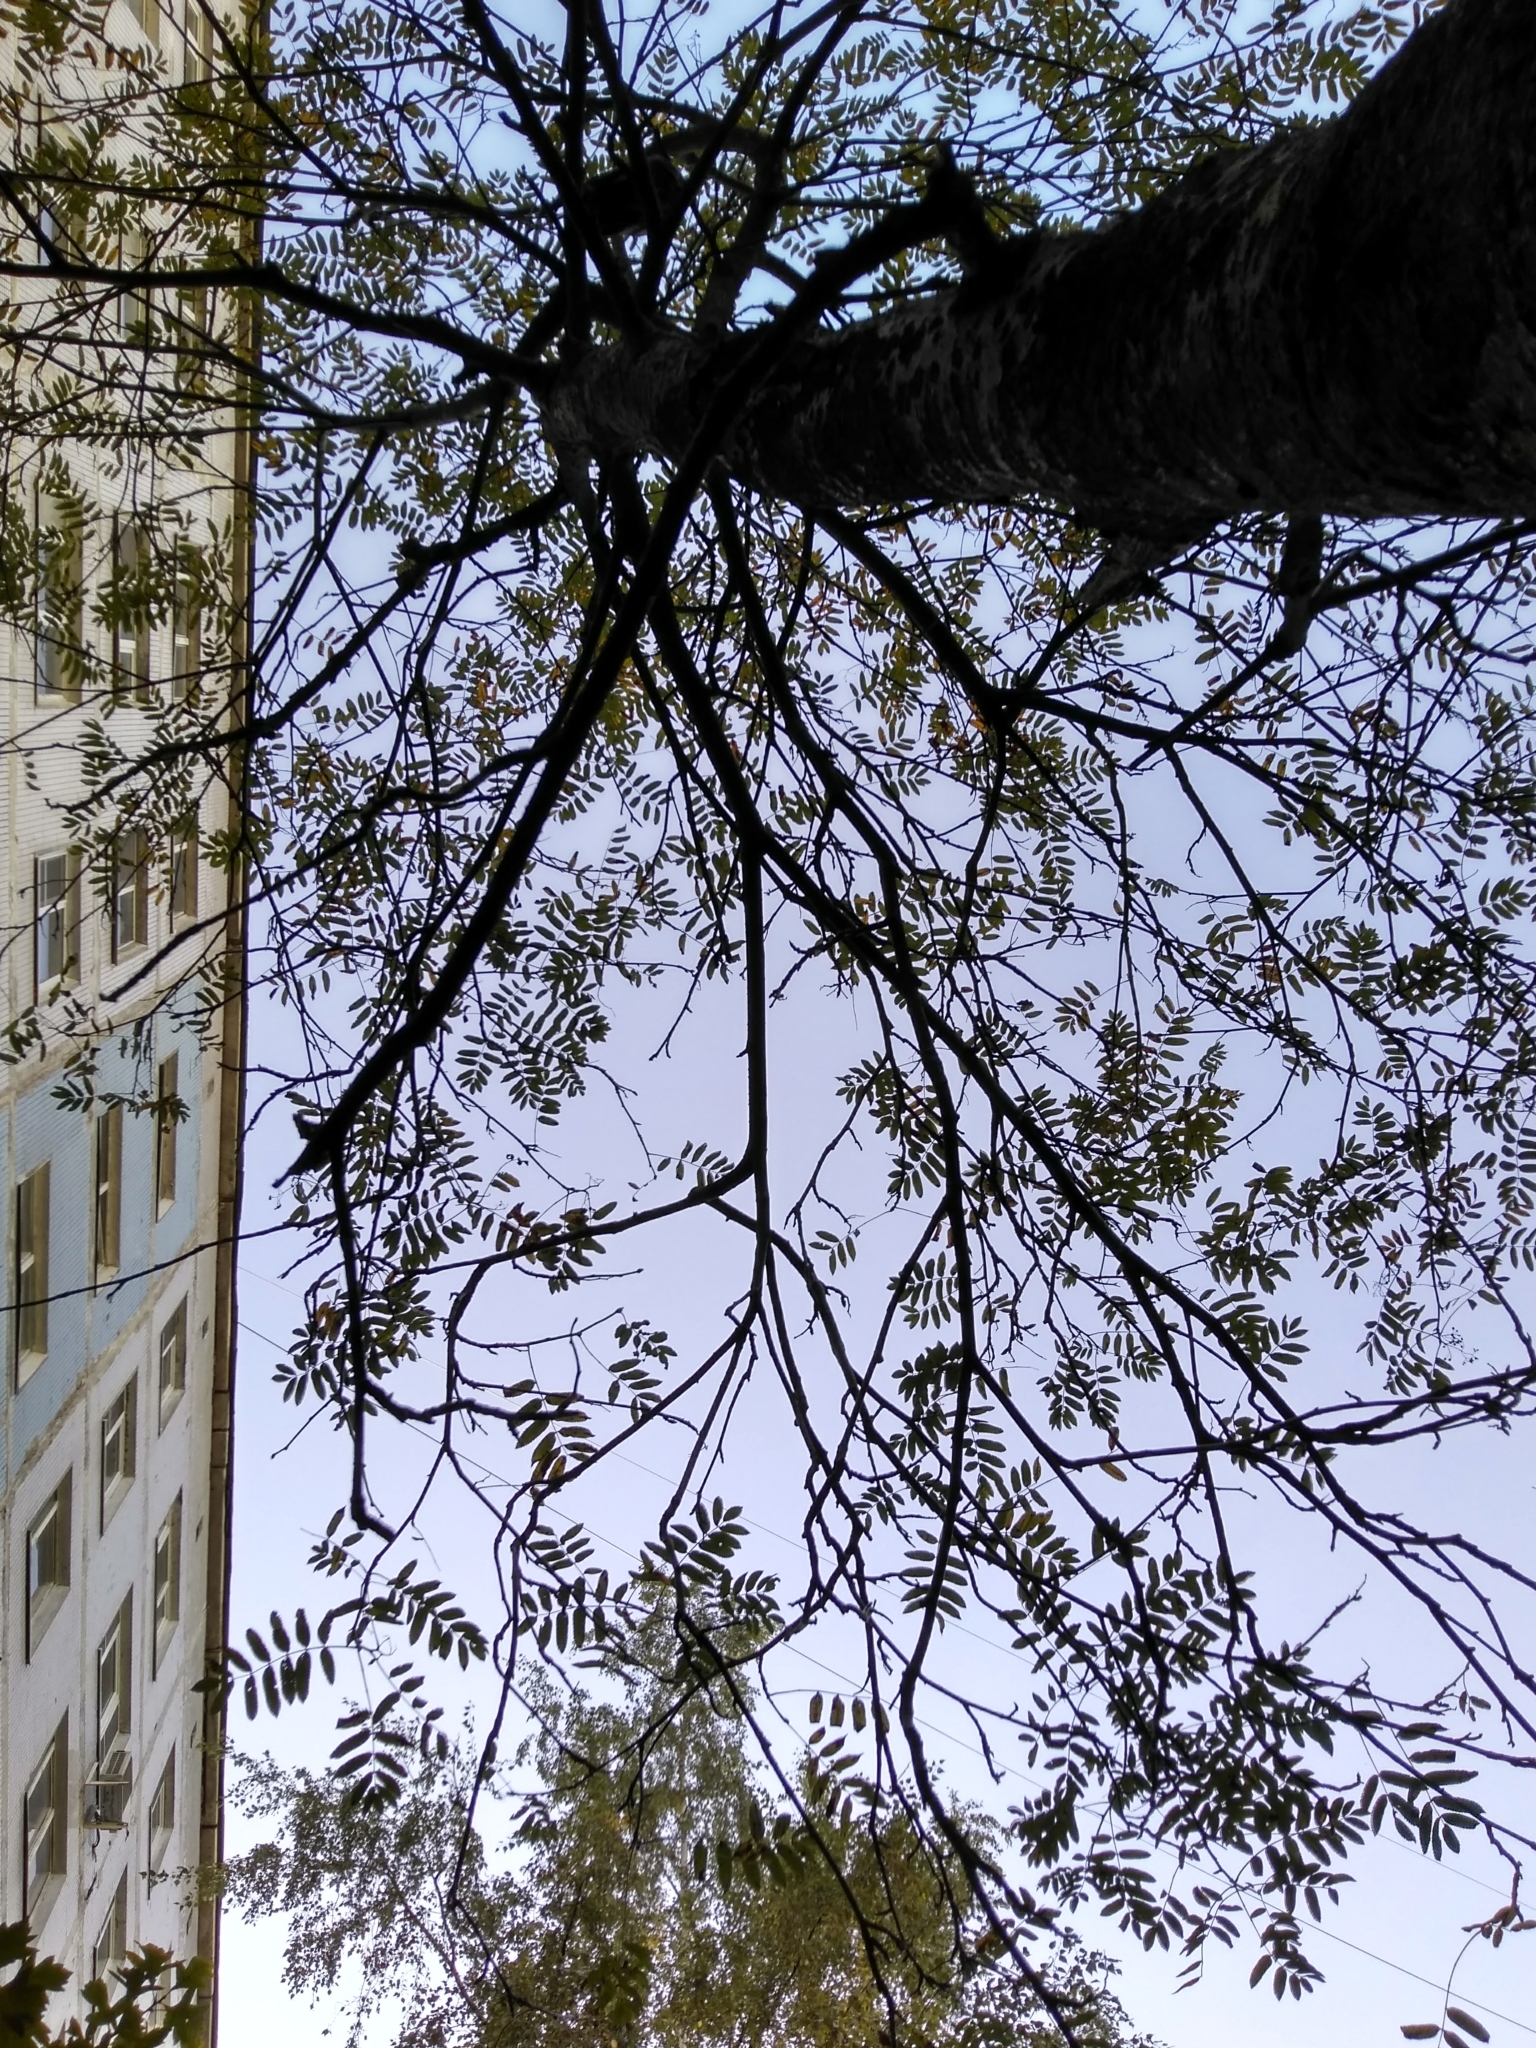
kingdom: Plantae
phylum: Tracheophyta
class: Magnoliopsida
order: Rosales
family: Rosaceae
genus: Sorbus
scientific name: Sorbus aucuparia
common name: Rowan
